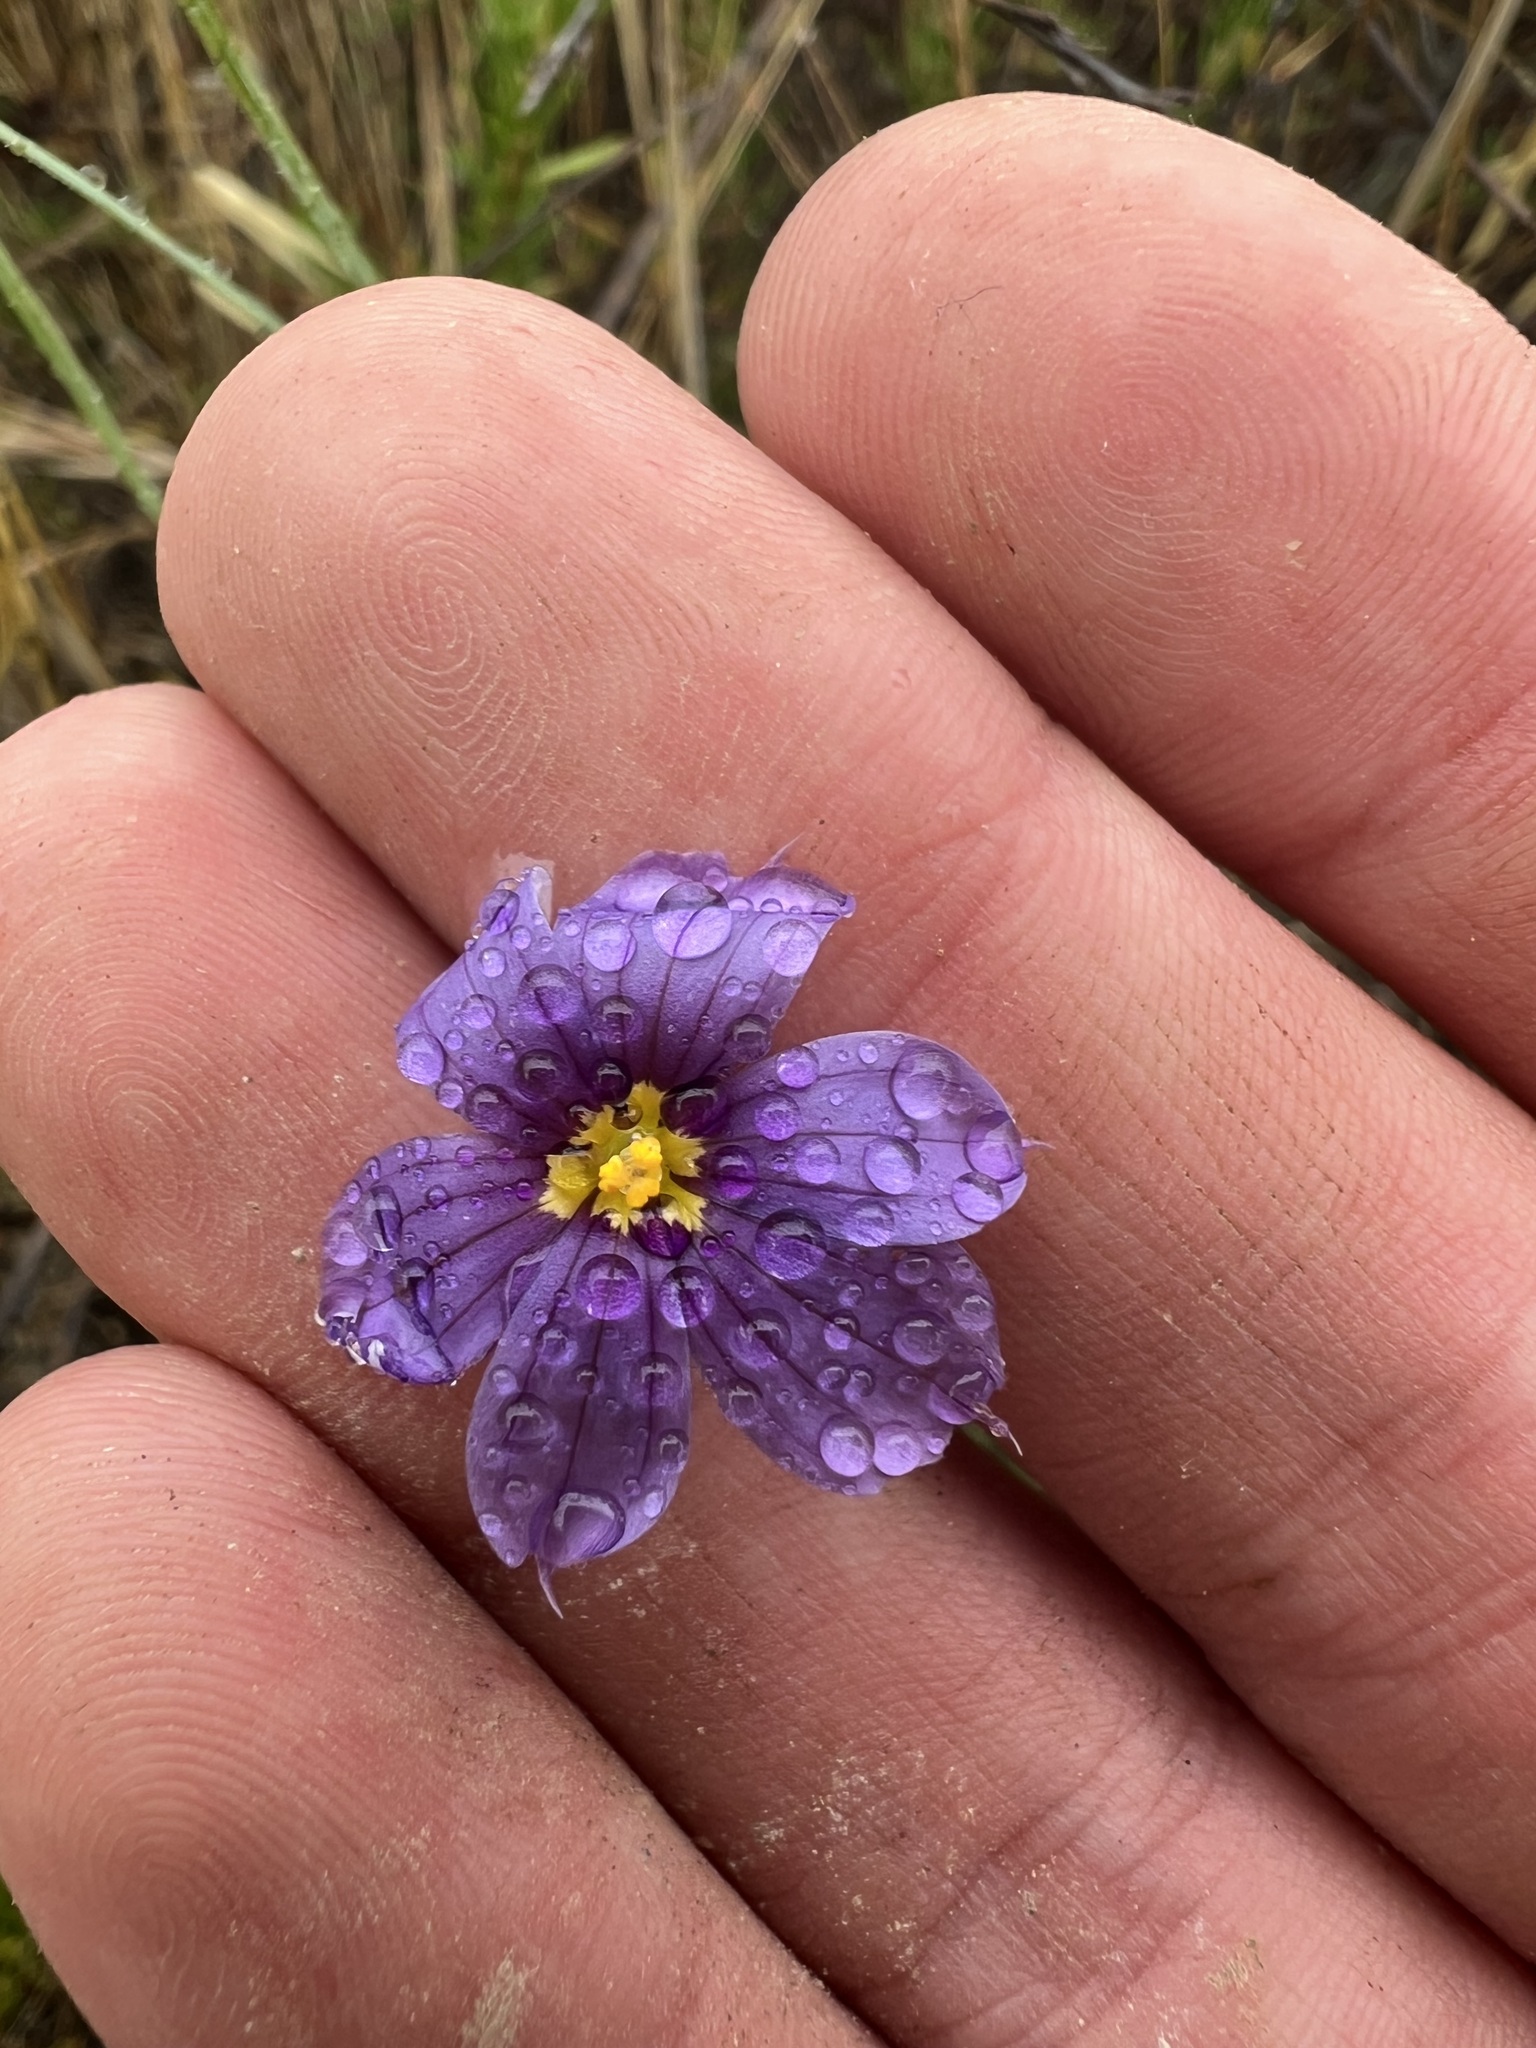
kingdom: Plantae
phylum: Tracheophyta
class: Liliopsida
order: Asparagales
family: Iridaceae
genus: Sisyrinchium
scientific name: Sisyrinchium bellum
